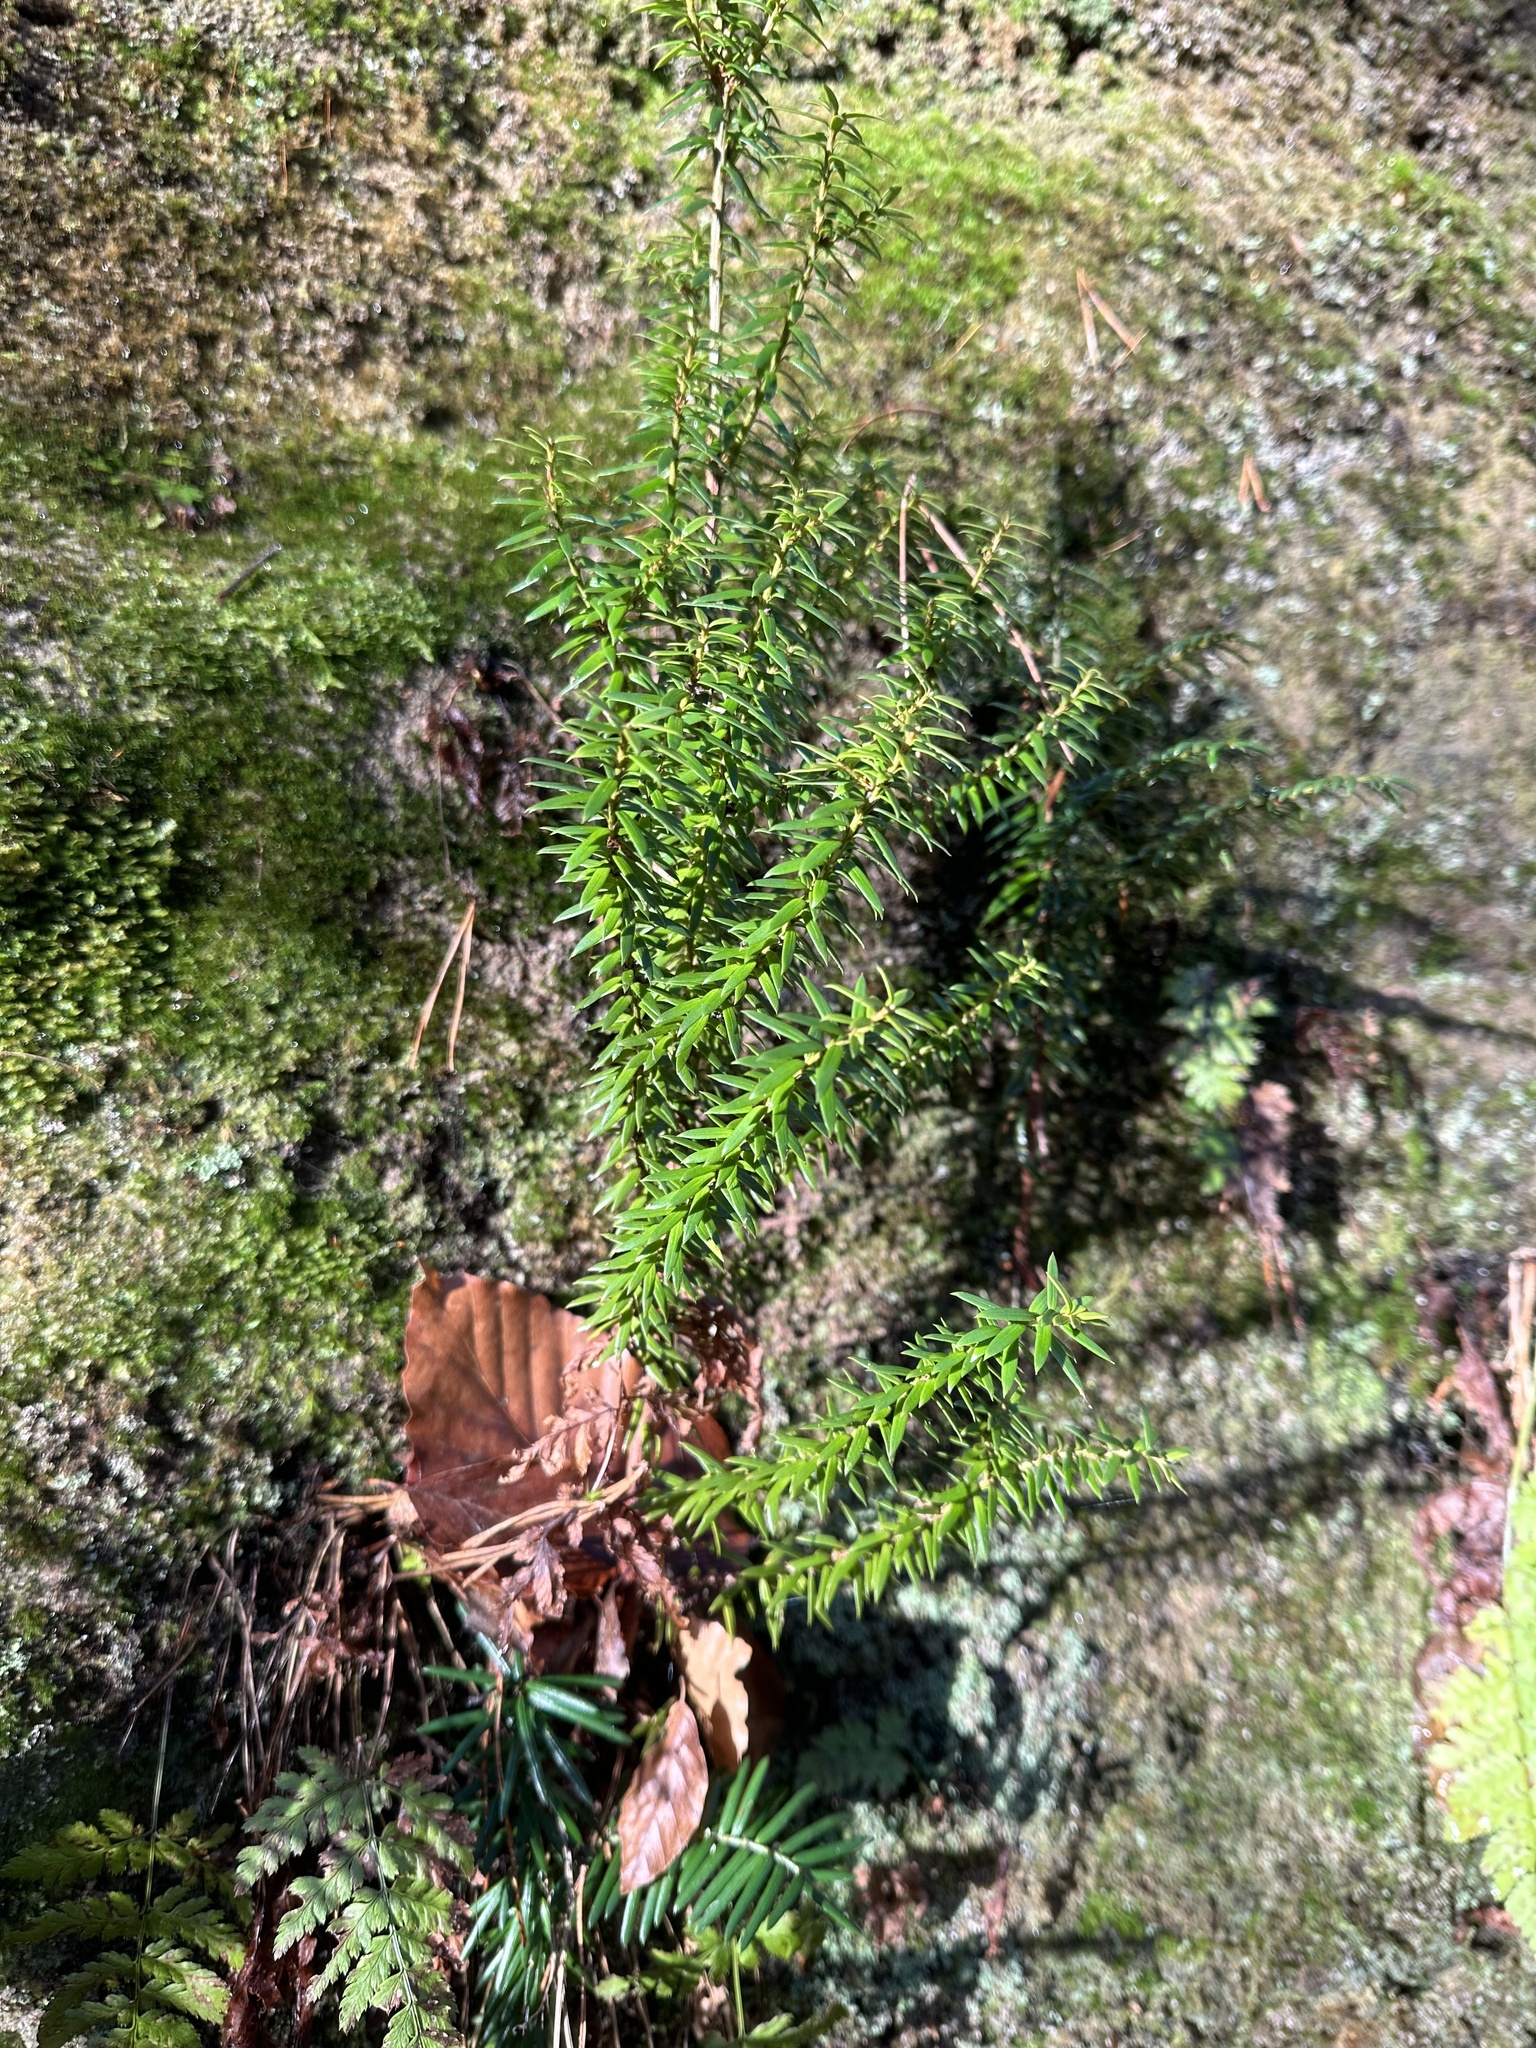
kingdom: Plantae
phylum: Tracheophyta
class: Pinopsida
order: Pinales
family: Taxaceae
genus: Taxus
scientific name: Taxus baccata
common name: Yew
